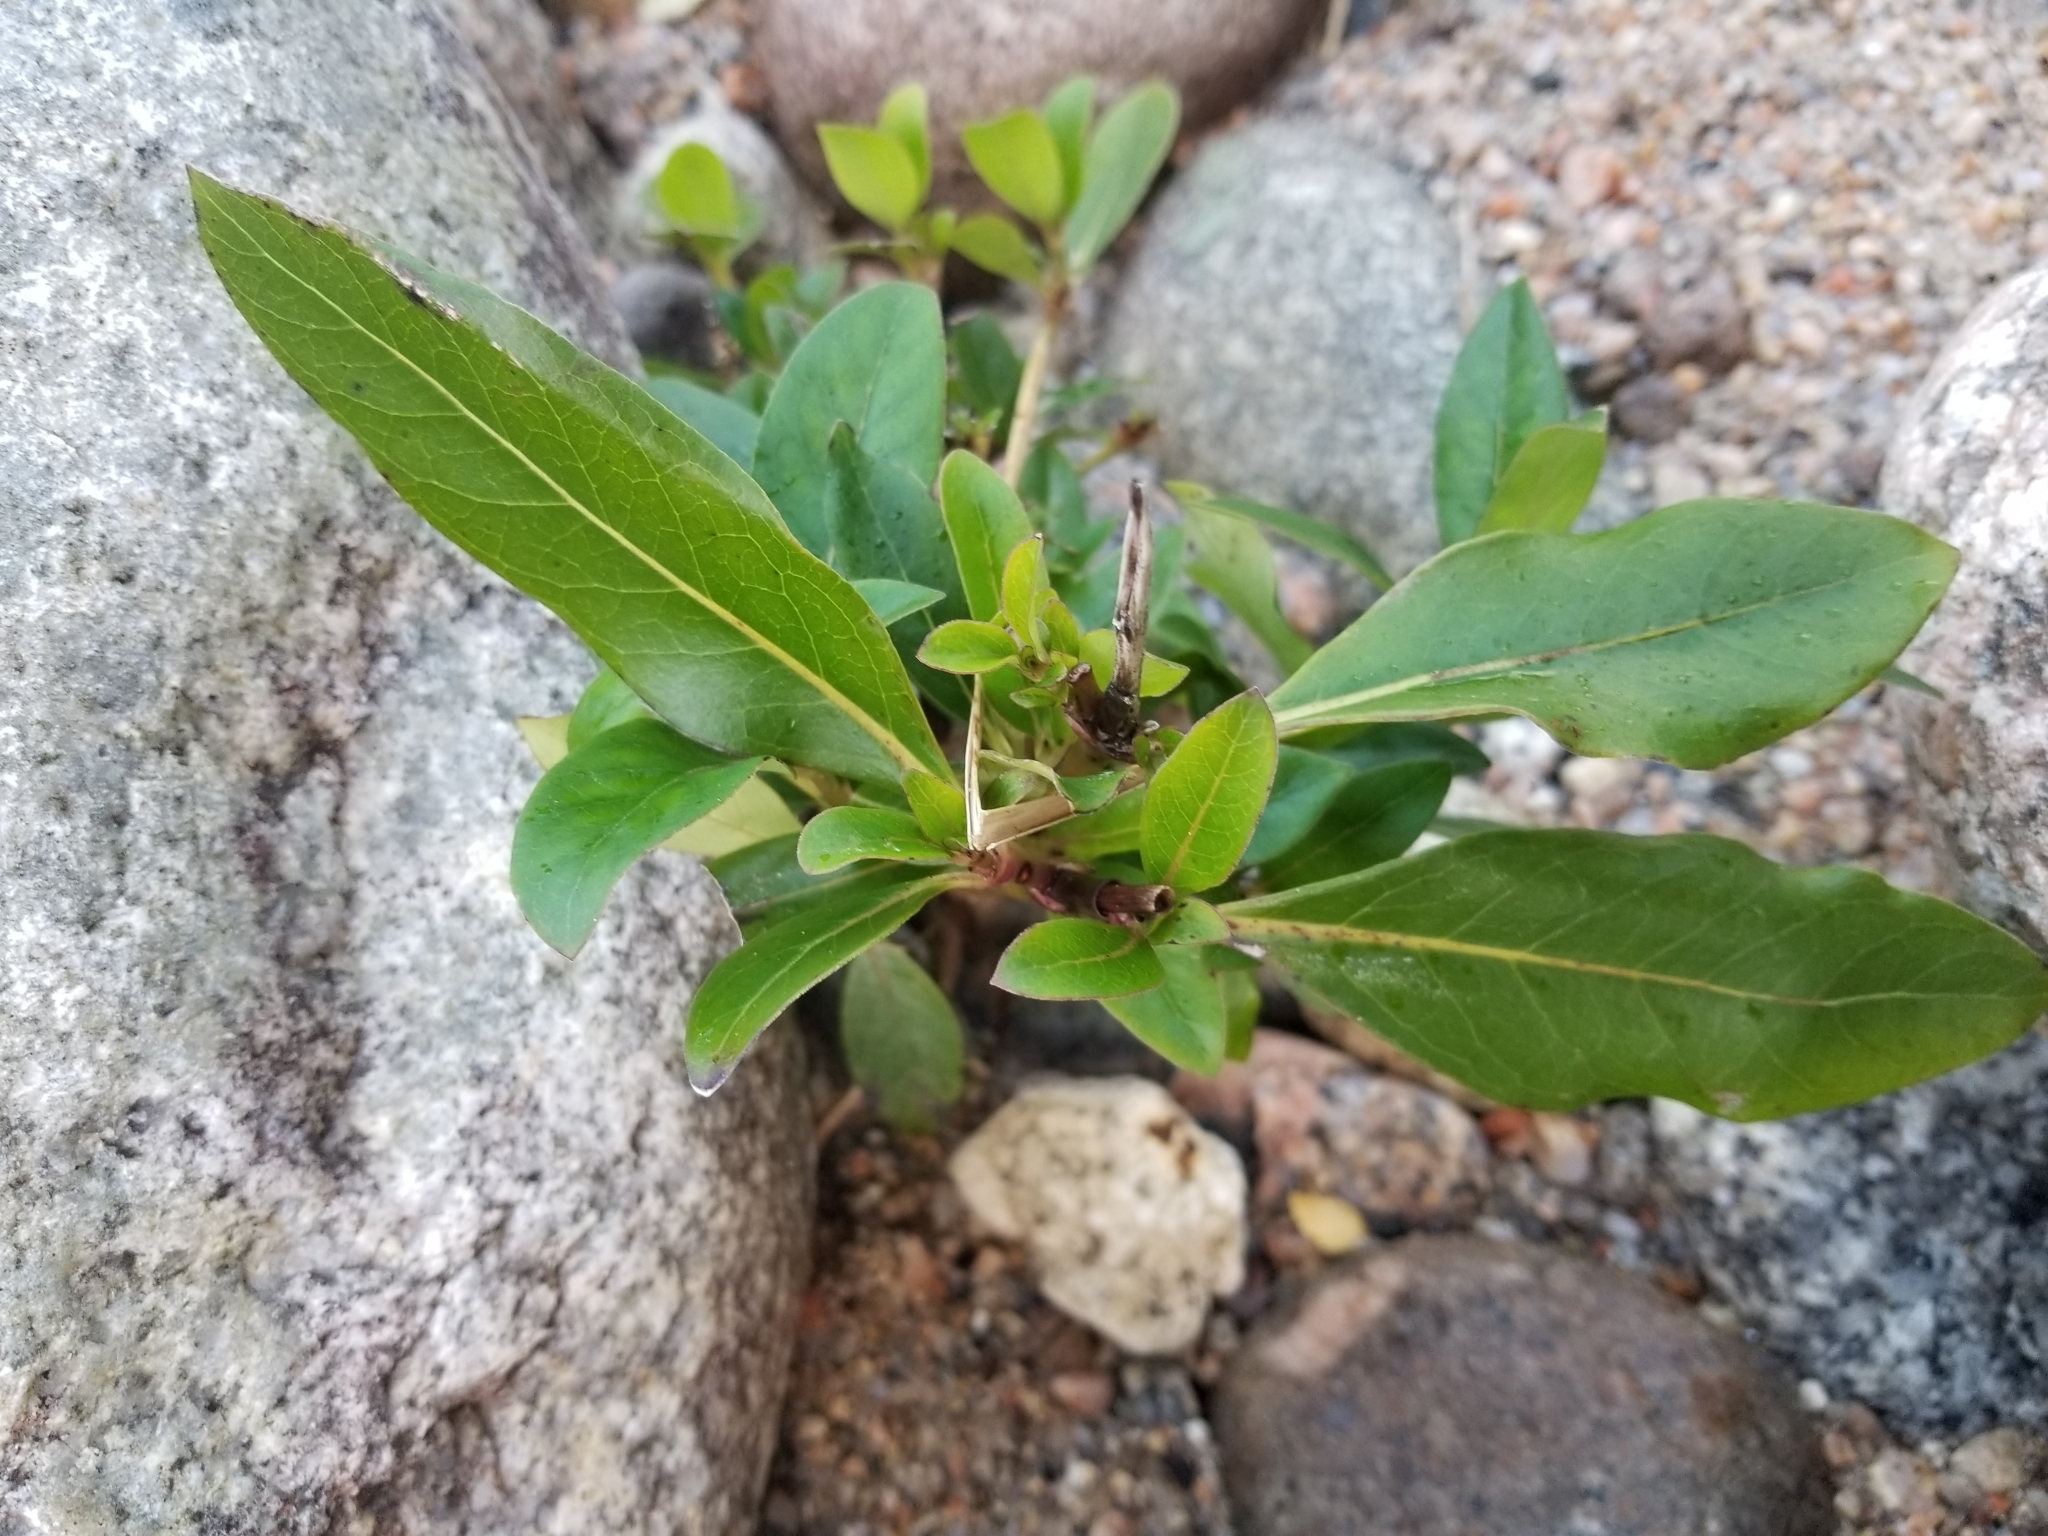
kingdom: Plantae
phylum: Tracheophyta
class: Magnoliopsida
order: Gentianales
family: Rubiaceae
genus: Coprosma
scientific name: Coprosma robusta
